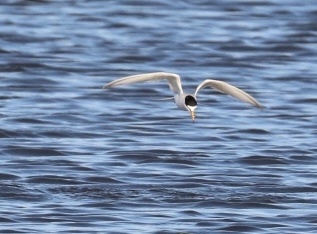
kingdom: Animalia
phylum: Chordata
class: Aves
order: Charadriiformes
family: Laridae
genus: Sternula
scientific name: Sternula albifrons
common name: Little tern
